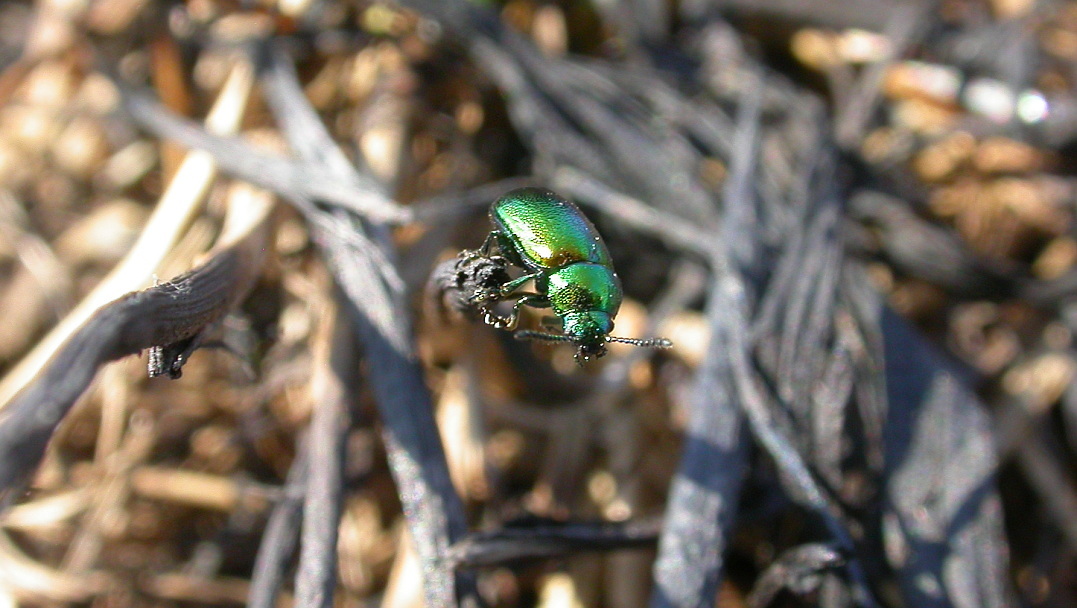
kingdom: Animalia
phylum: Arthropoda
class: Insecta
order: Coleoptera
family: Chrysomelidae
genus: Gastrophysa
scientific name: Gastrophysa viridula
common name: Green dock beetle
